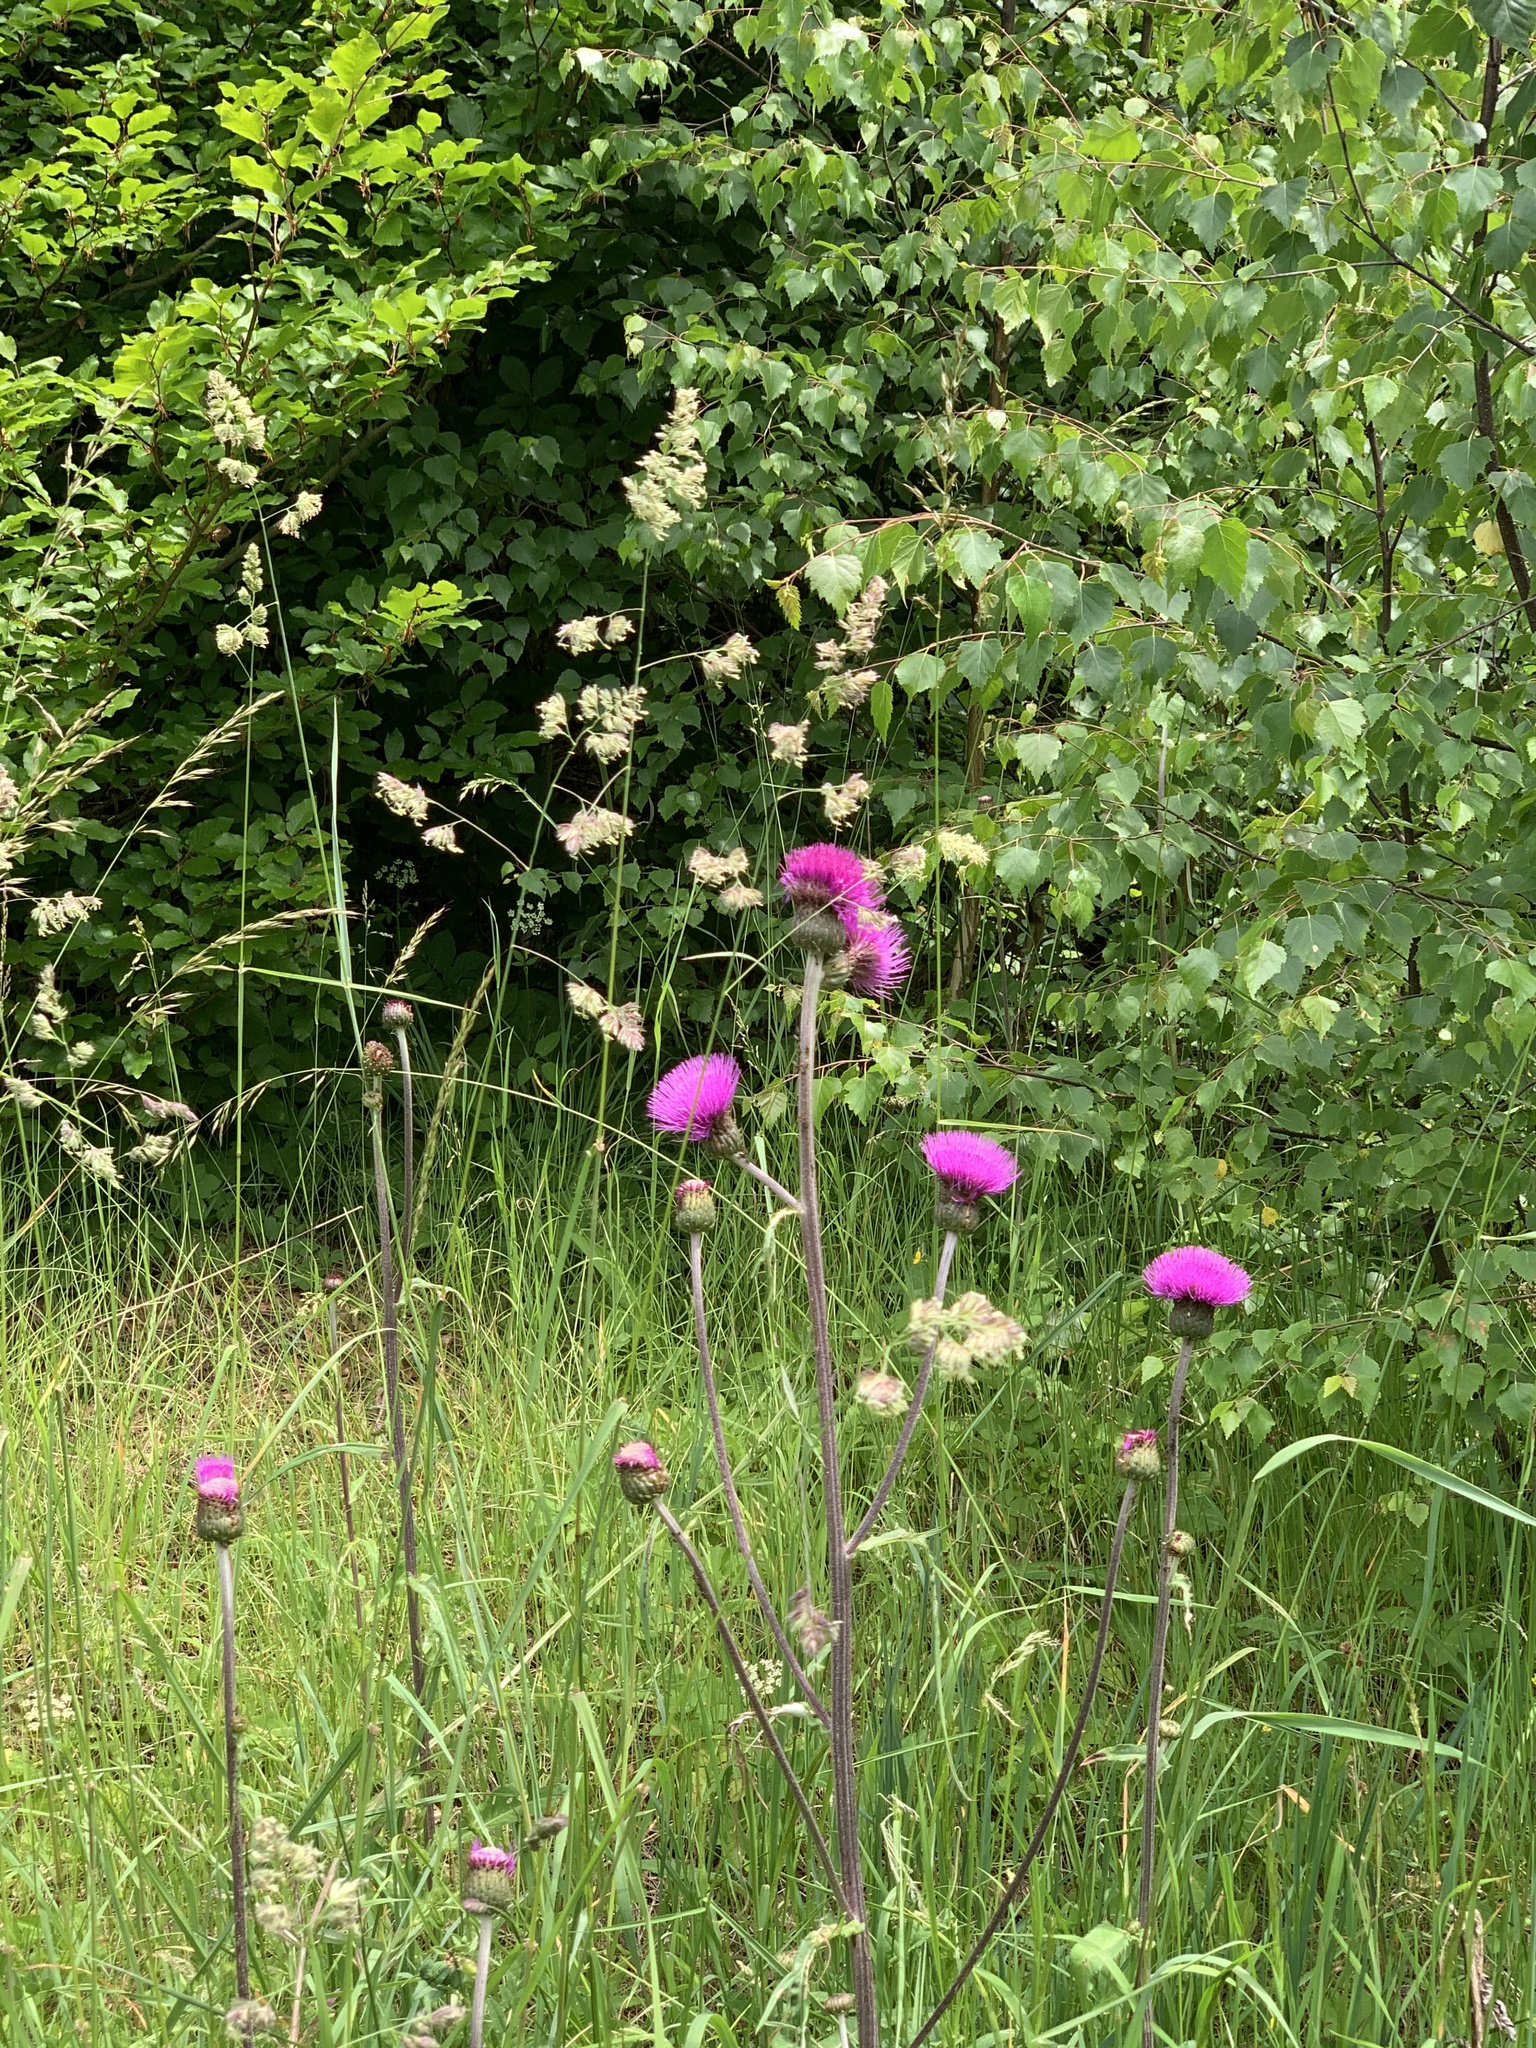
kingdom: Plantae
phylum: Tracheophyta
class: Magnoliopsida
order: Asterales
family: Asteraceae
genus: Cirsium
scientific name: Cirsium heterophyllum
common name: Melancholy thistle
